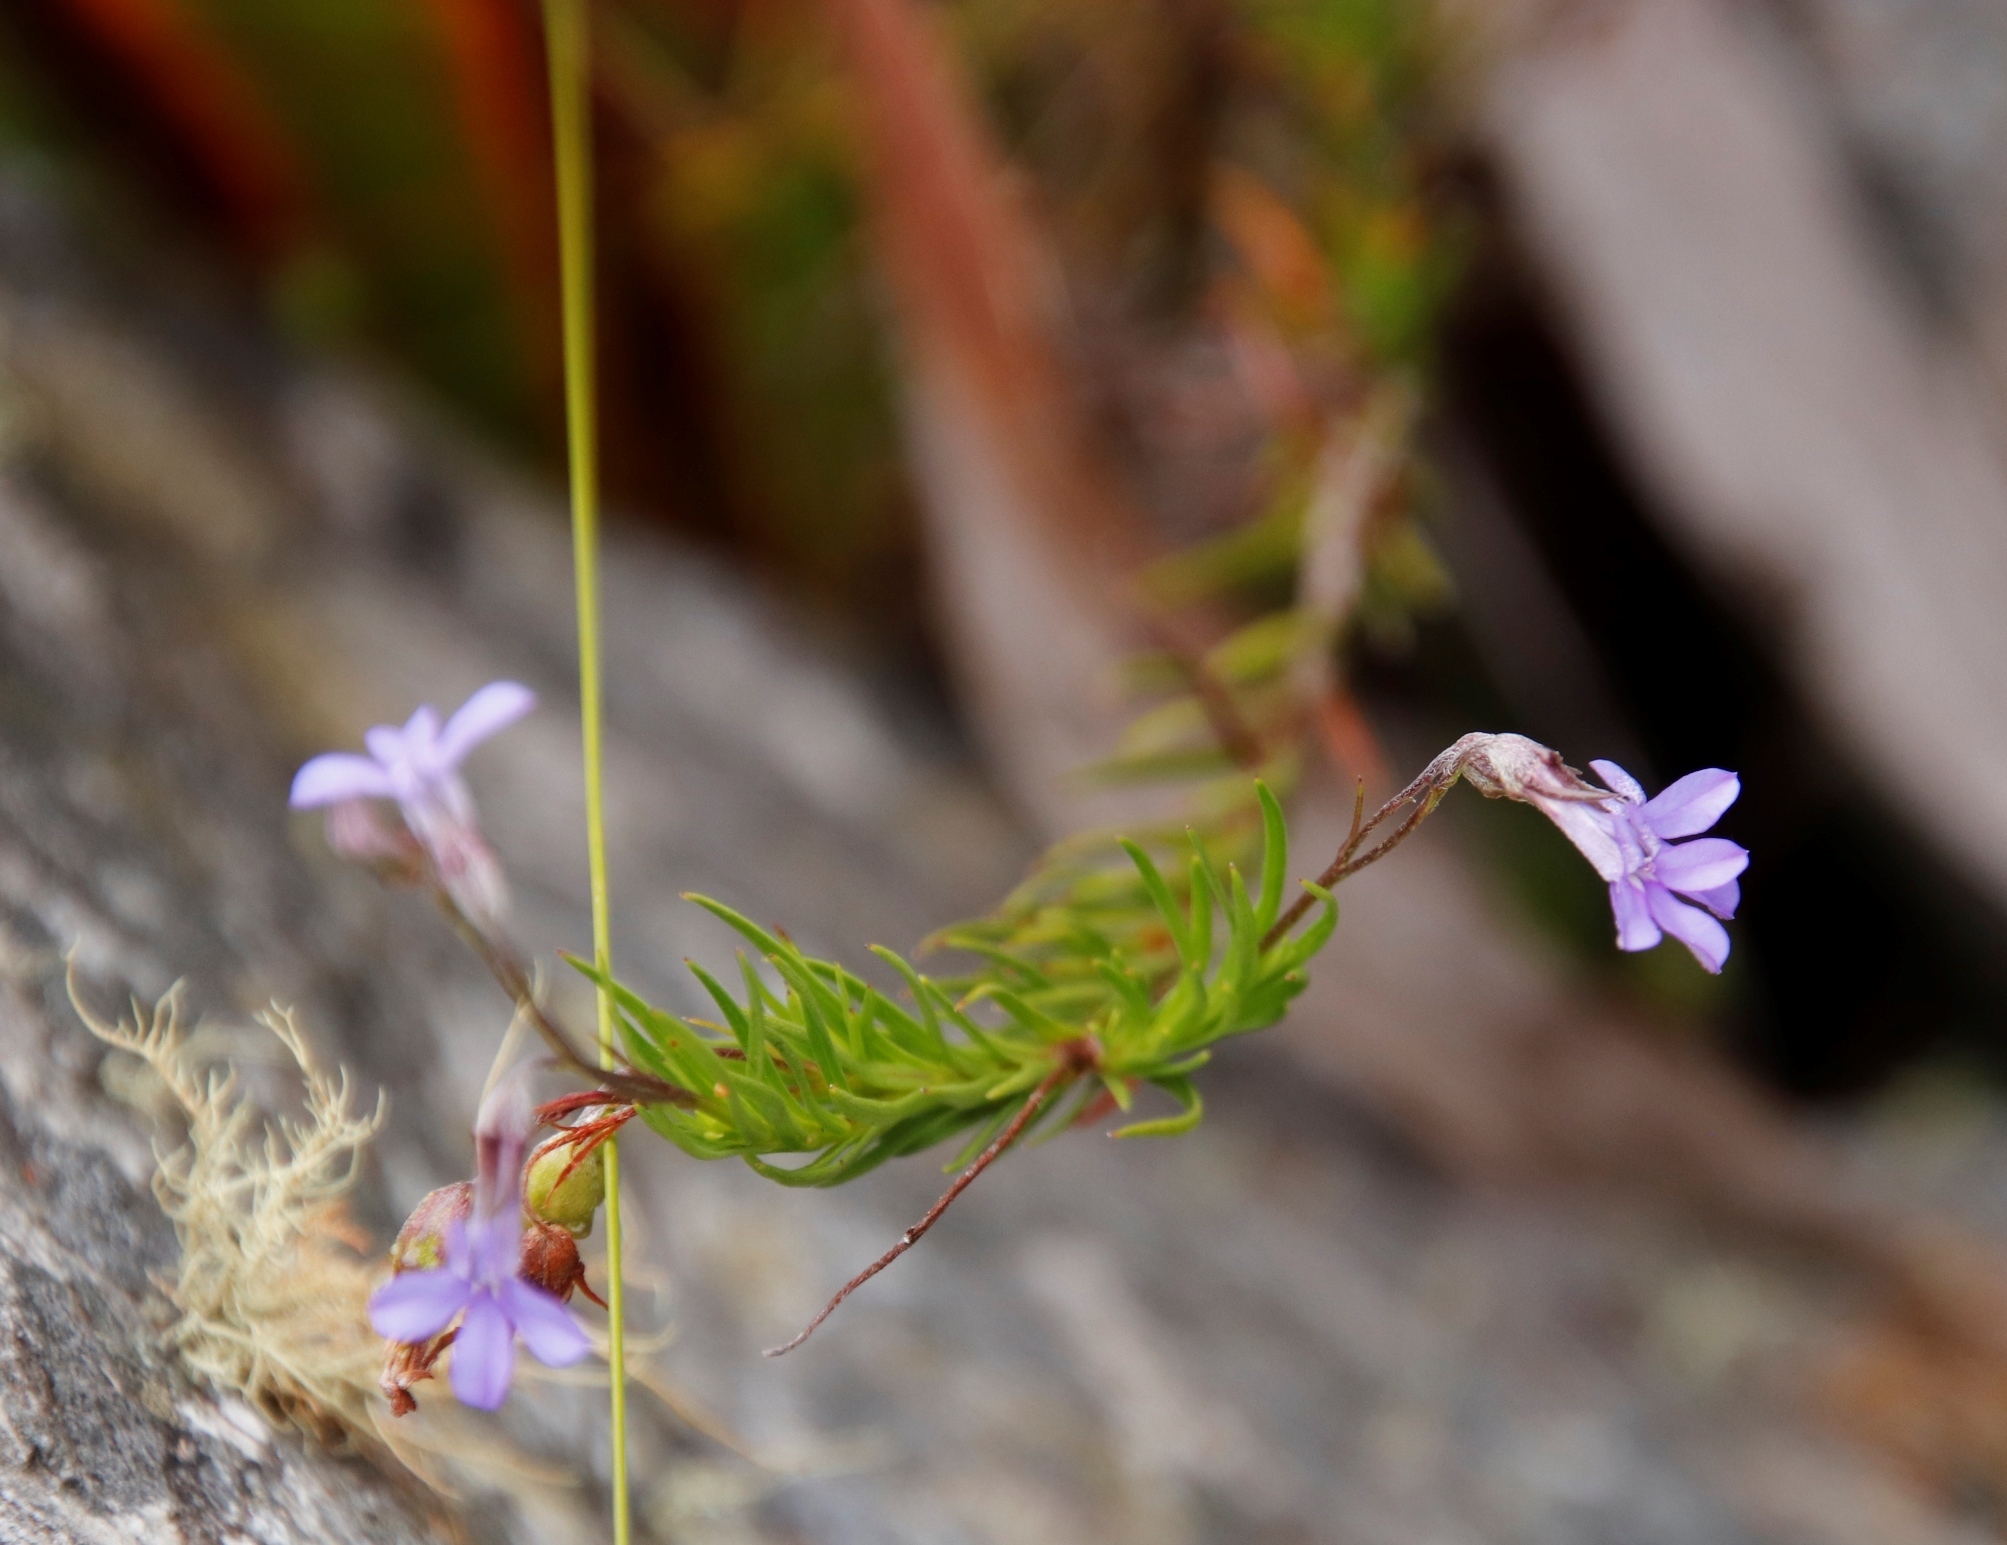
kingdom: Plantae
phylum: Tracheophyta
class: Magnoliopsida
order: Asterales
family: Campanulaceae
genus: Lobelia
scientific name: Lobelia pinifolia
